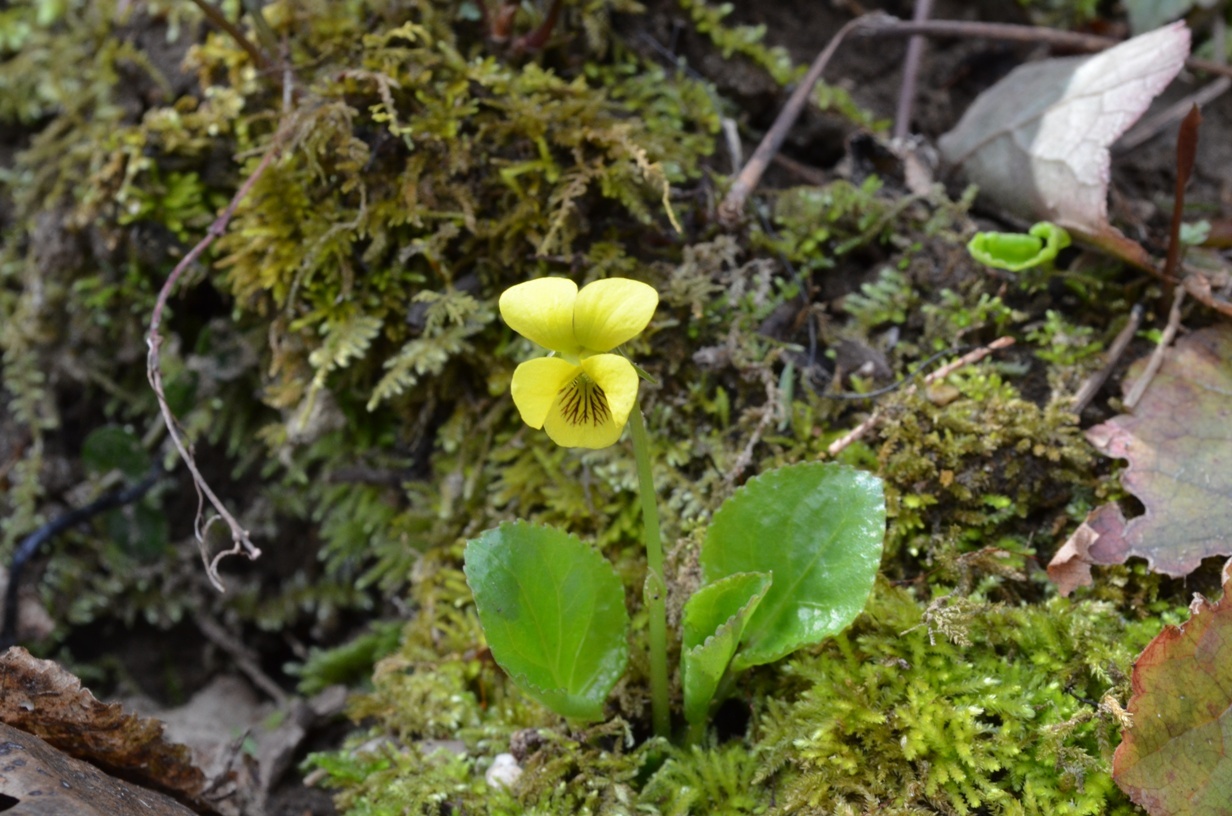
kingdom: Plantae
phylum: Tracheophyta
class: Magnoliopsida
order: Malpighiales
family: Violaceae
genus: Viola
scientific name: Viola rotundifolia
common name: Early yellow violet
